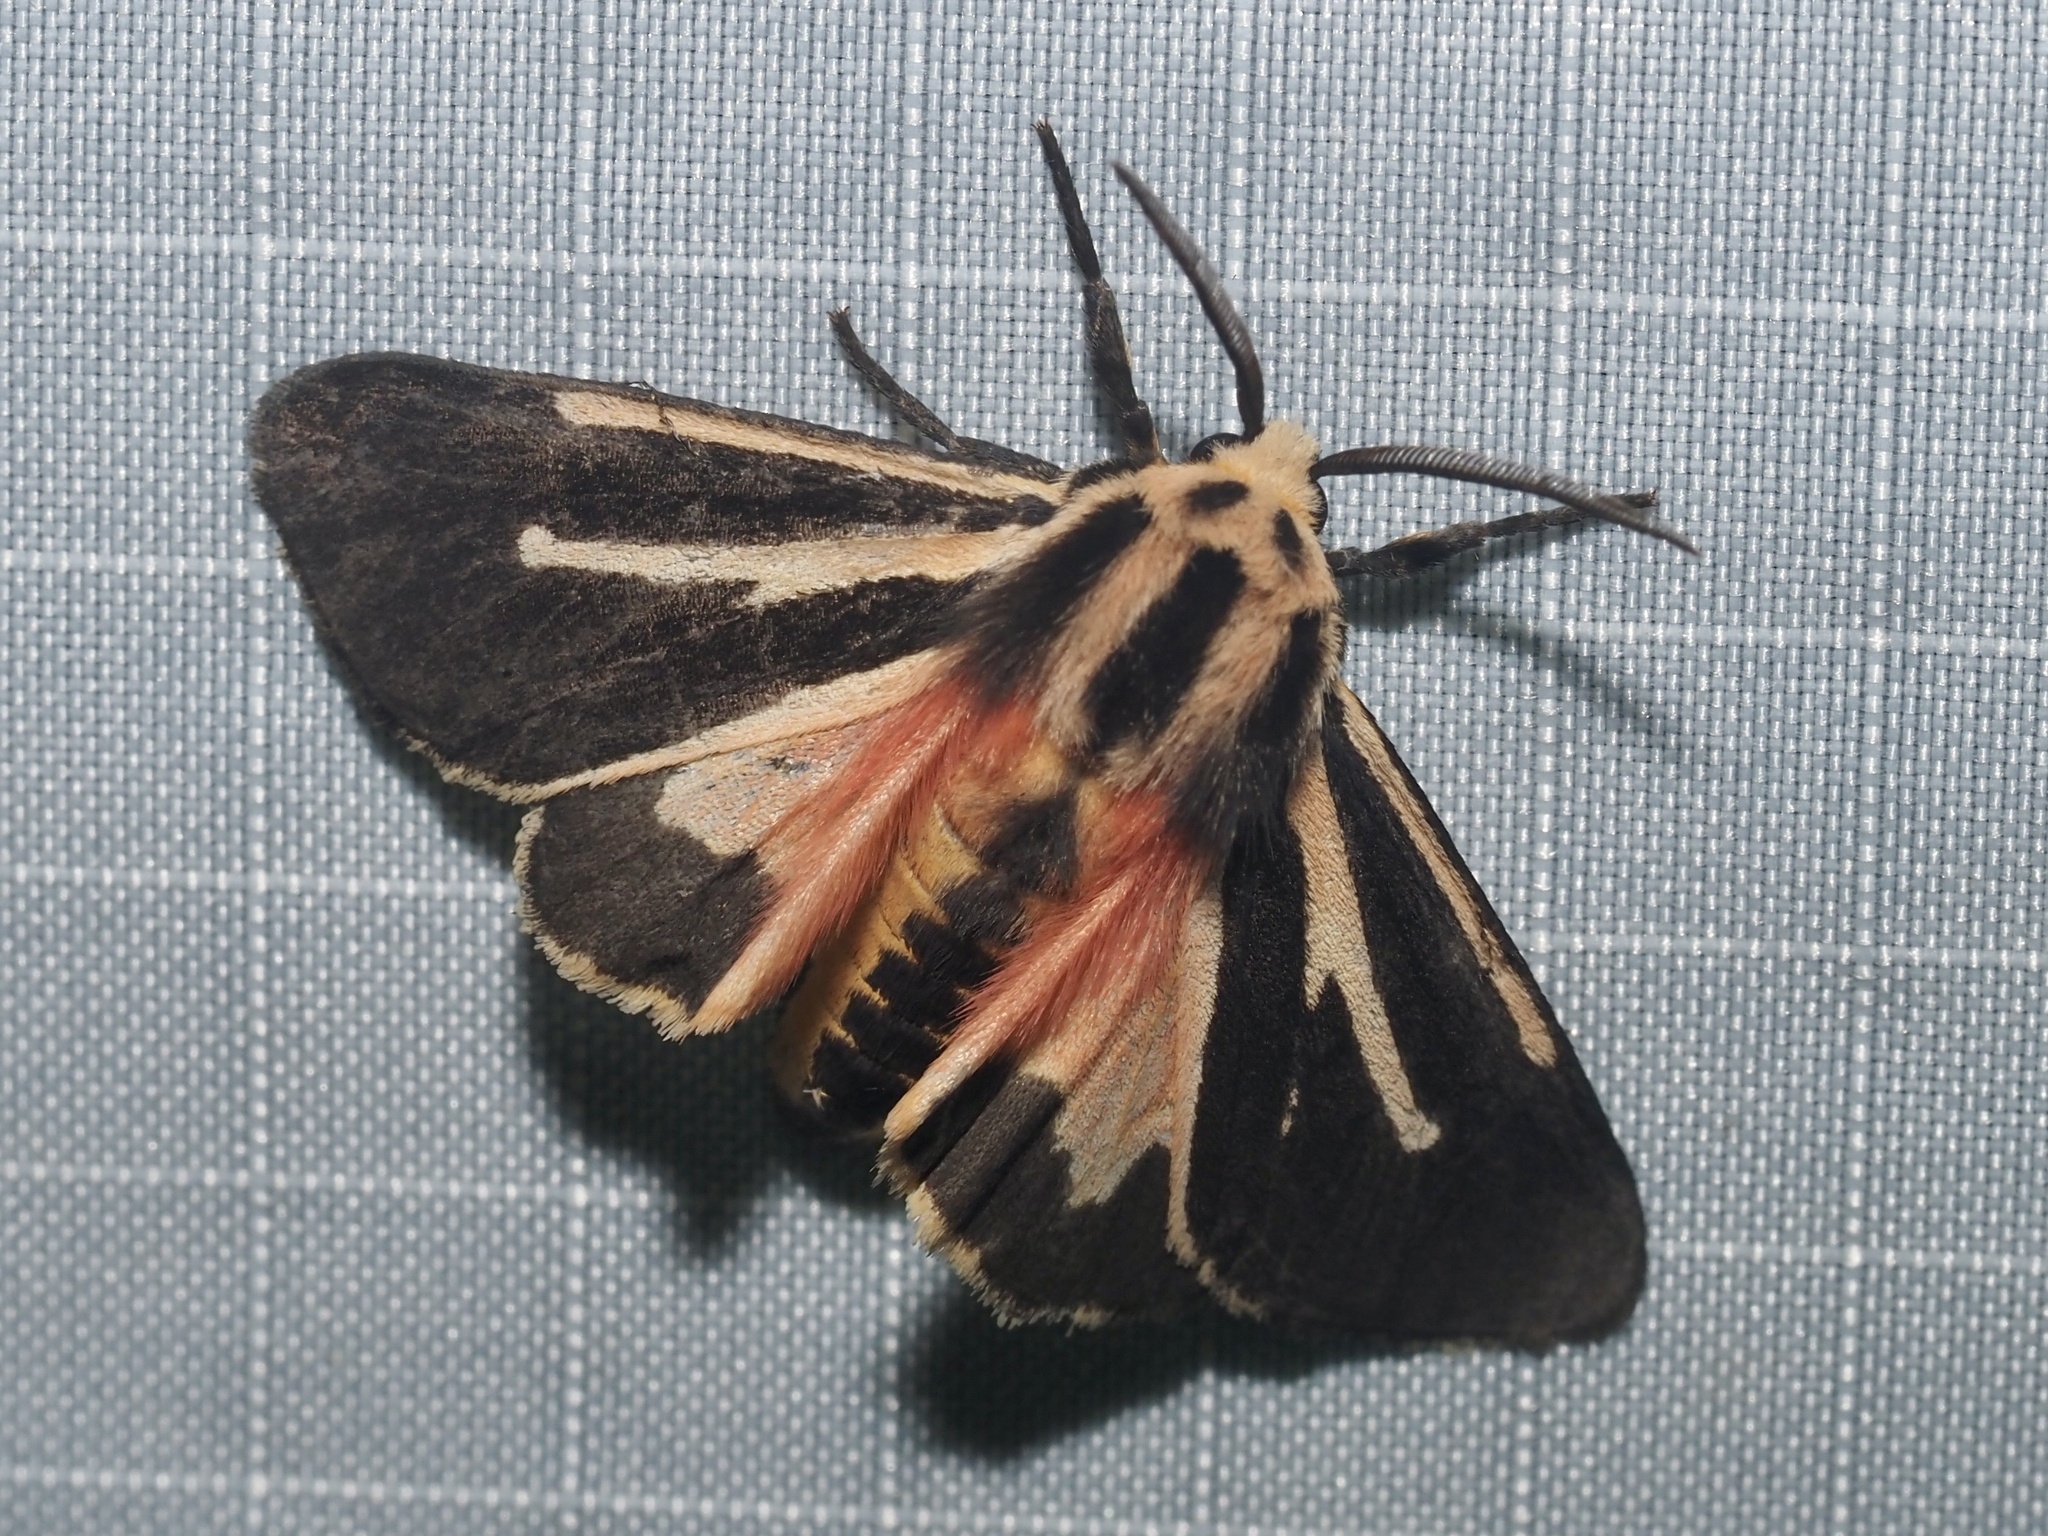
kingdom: Animalia
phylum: Arthropoda
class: Insecta
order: Lepidoptera
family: Erebidae
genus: Apantesis
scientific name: Apantesis phalerata
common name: Harnessed tiger moth
